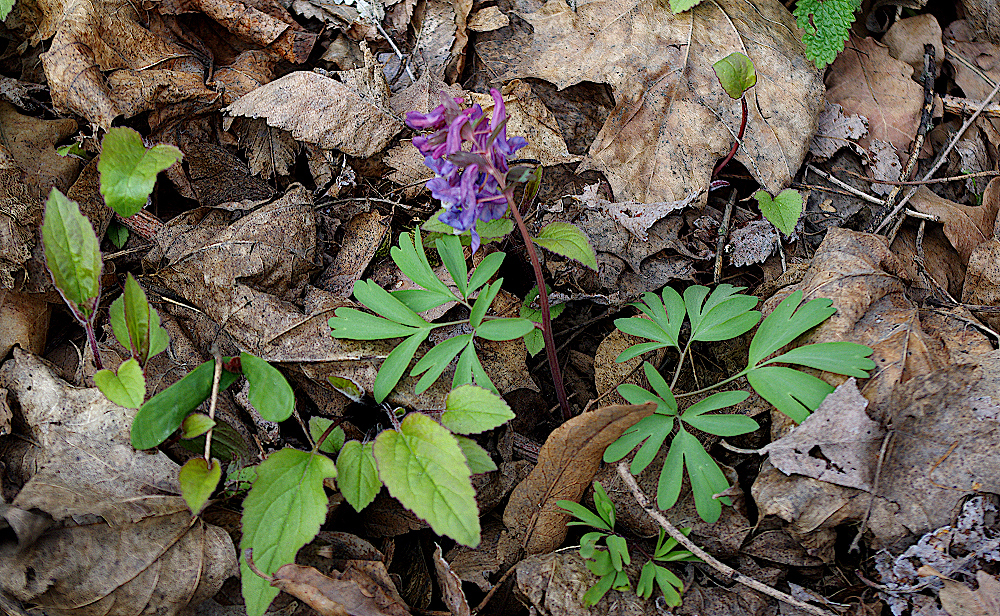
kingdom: Plantae
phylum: Tracheophyta
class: Magnoliopsida
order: Ranunculales
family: Papaveraceae
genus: Corydalis
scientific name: Corydalis solida
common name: Bird-in-a-bush
